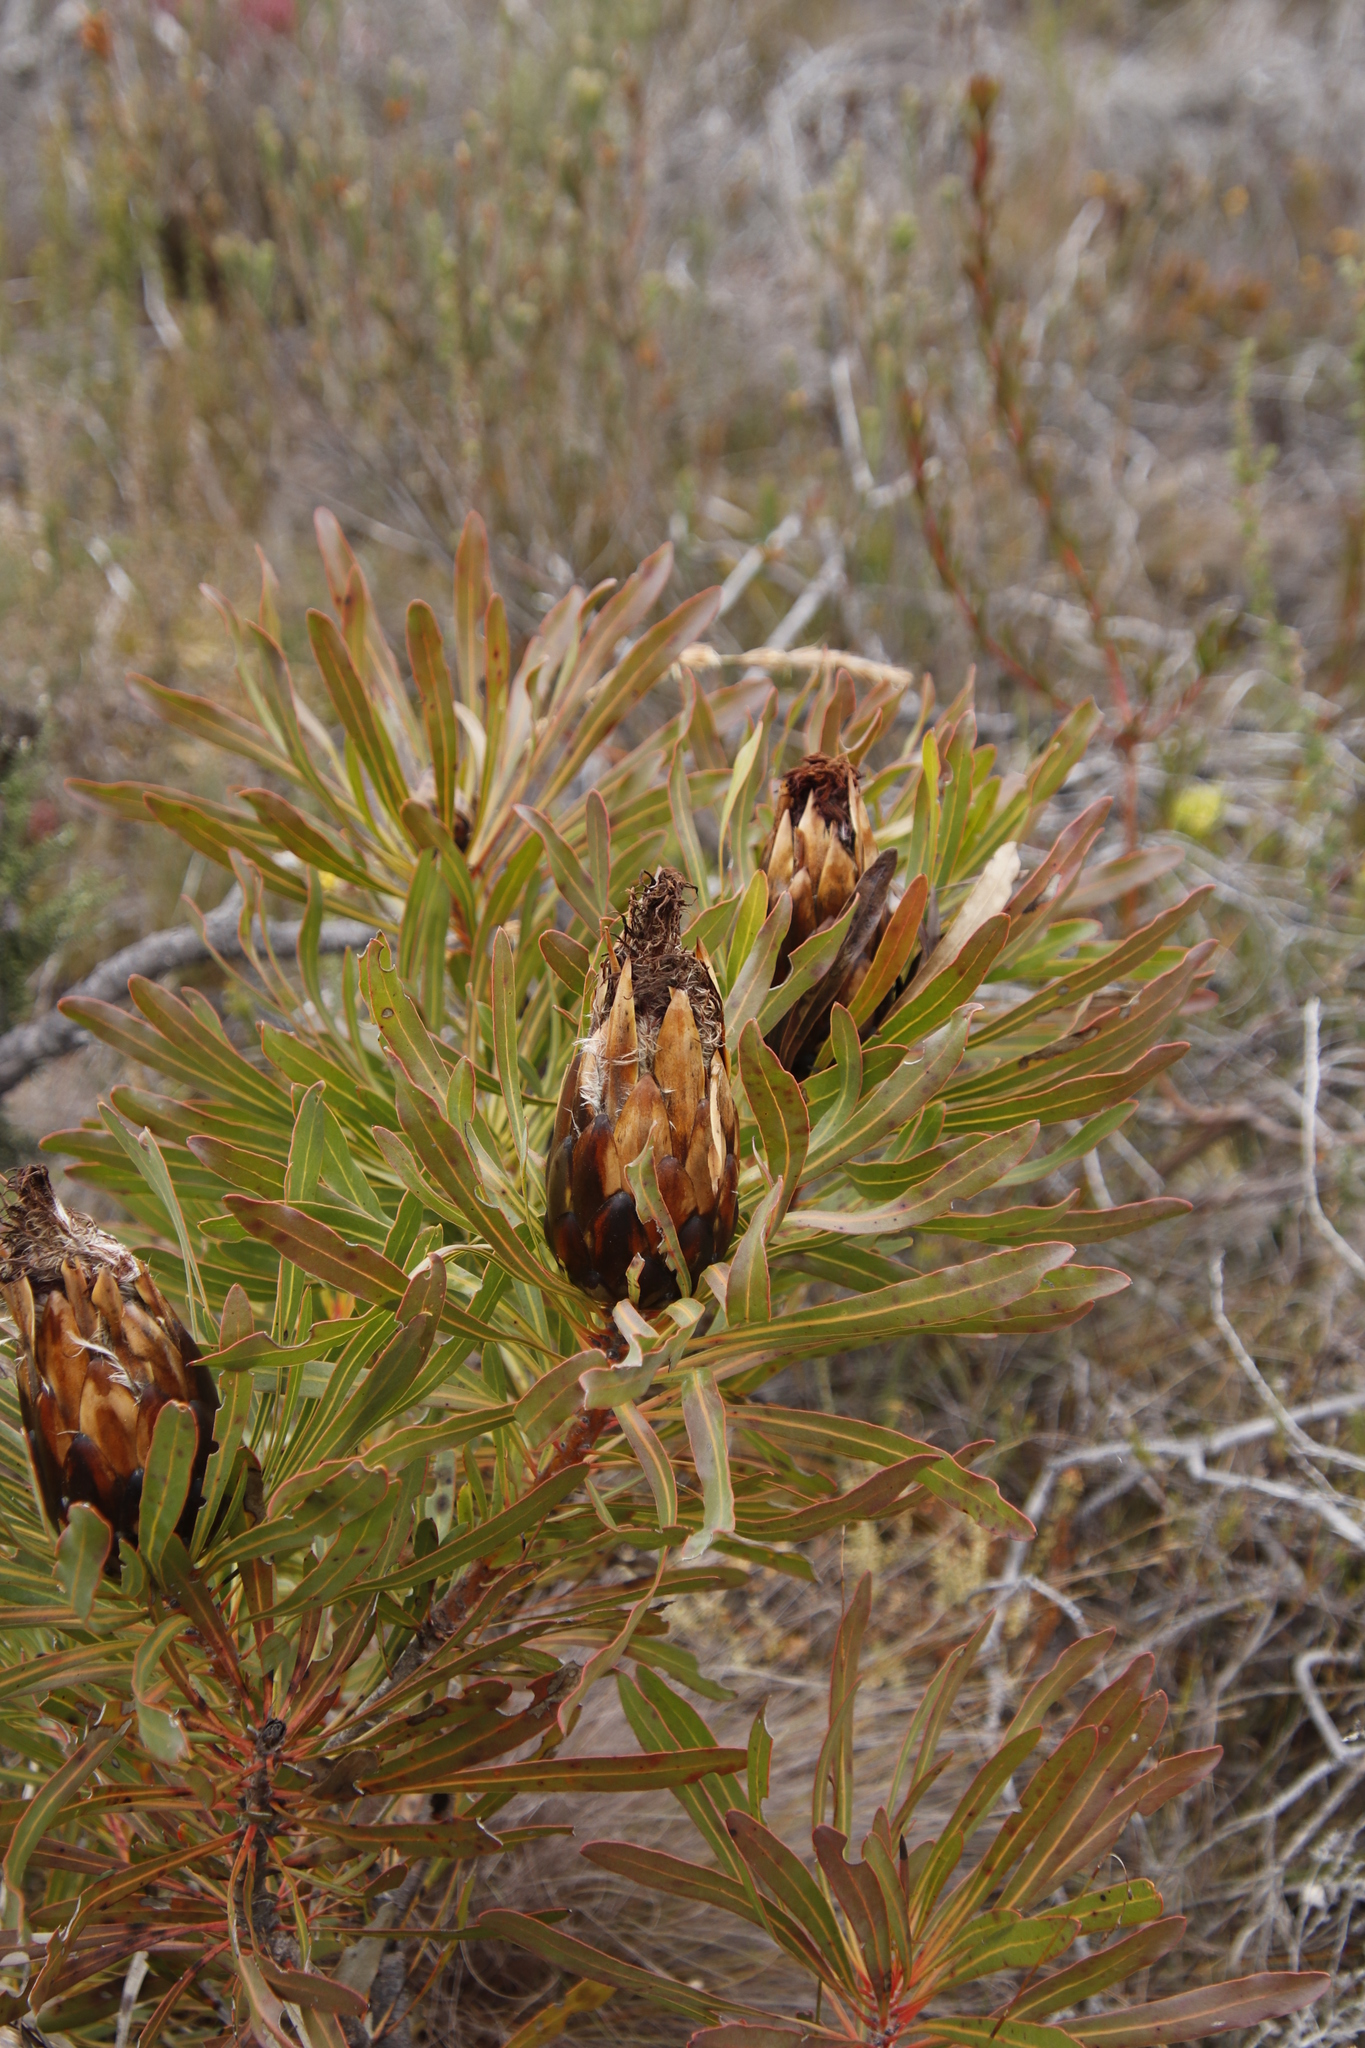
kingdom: Plantae
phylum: Tracheophyta
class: Magnoliopsida
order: Proteales
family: Proteaceae
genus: Protea
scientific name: Protea longifolia
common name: Long-leaf sugarbush
